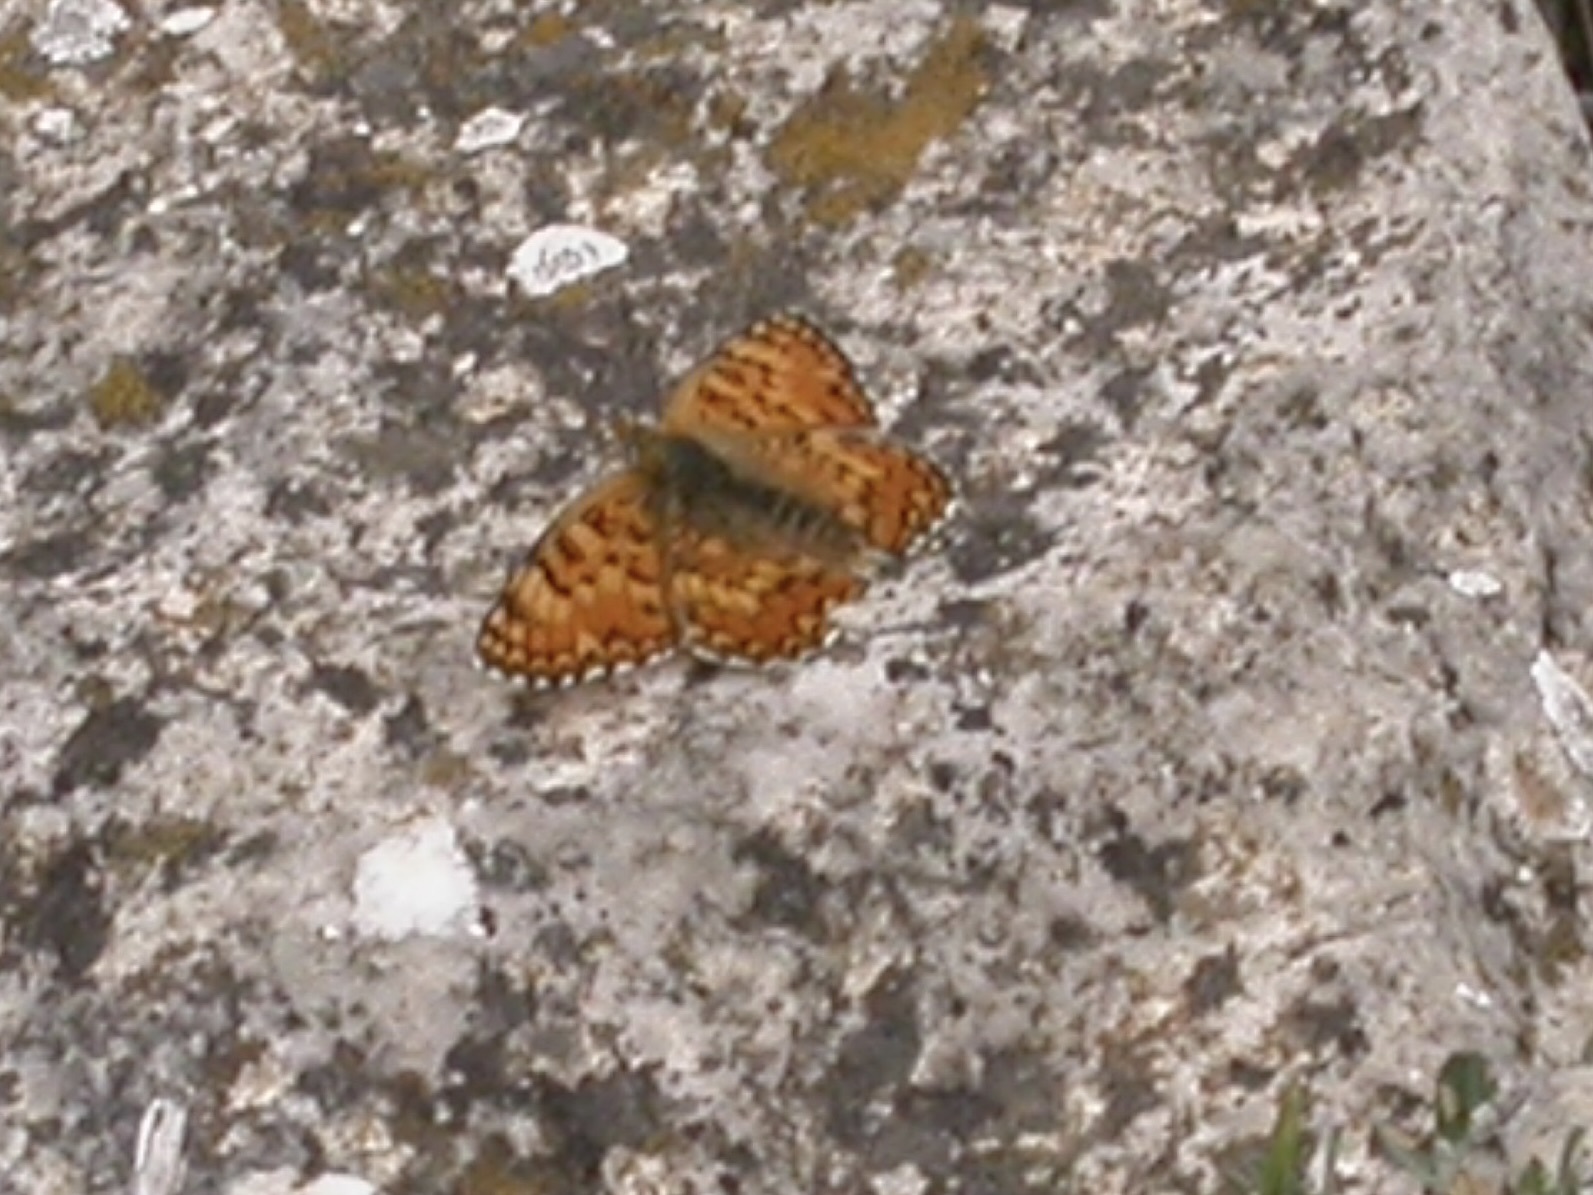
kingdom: Animalia
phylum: Arthropoda
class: Insecta
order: Lepidoptera
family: Nymphalidae
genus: Melitaea
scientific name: Melitaea phoebe
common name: Knapweed fritillary
